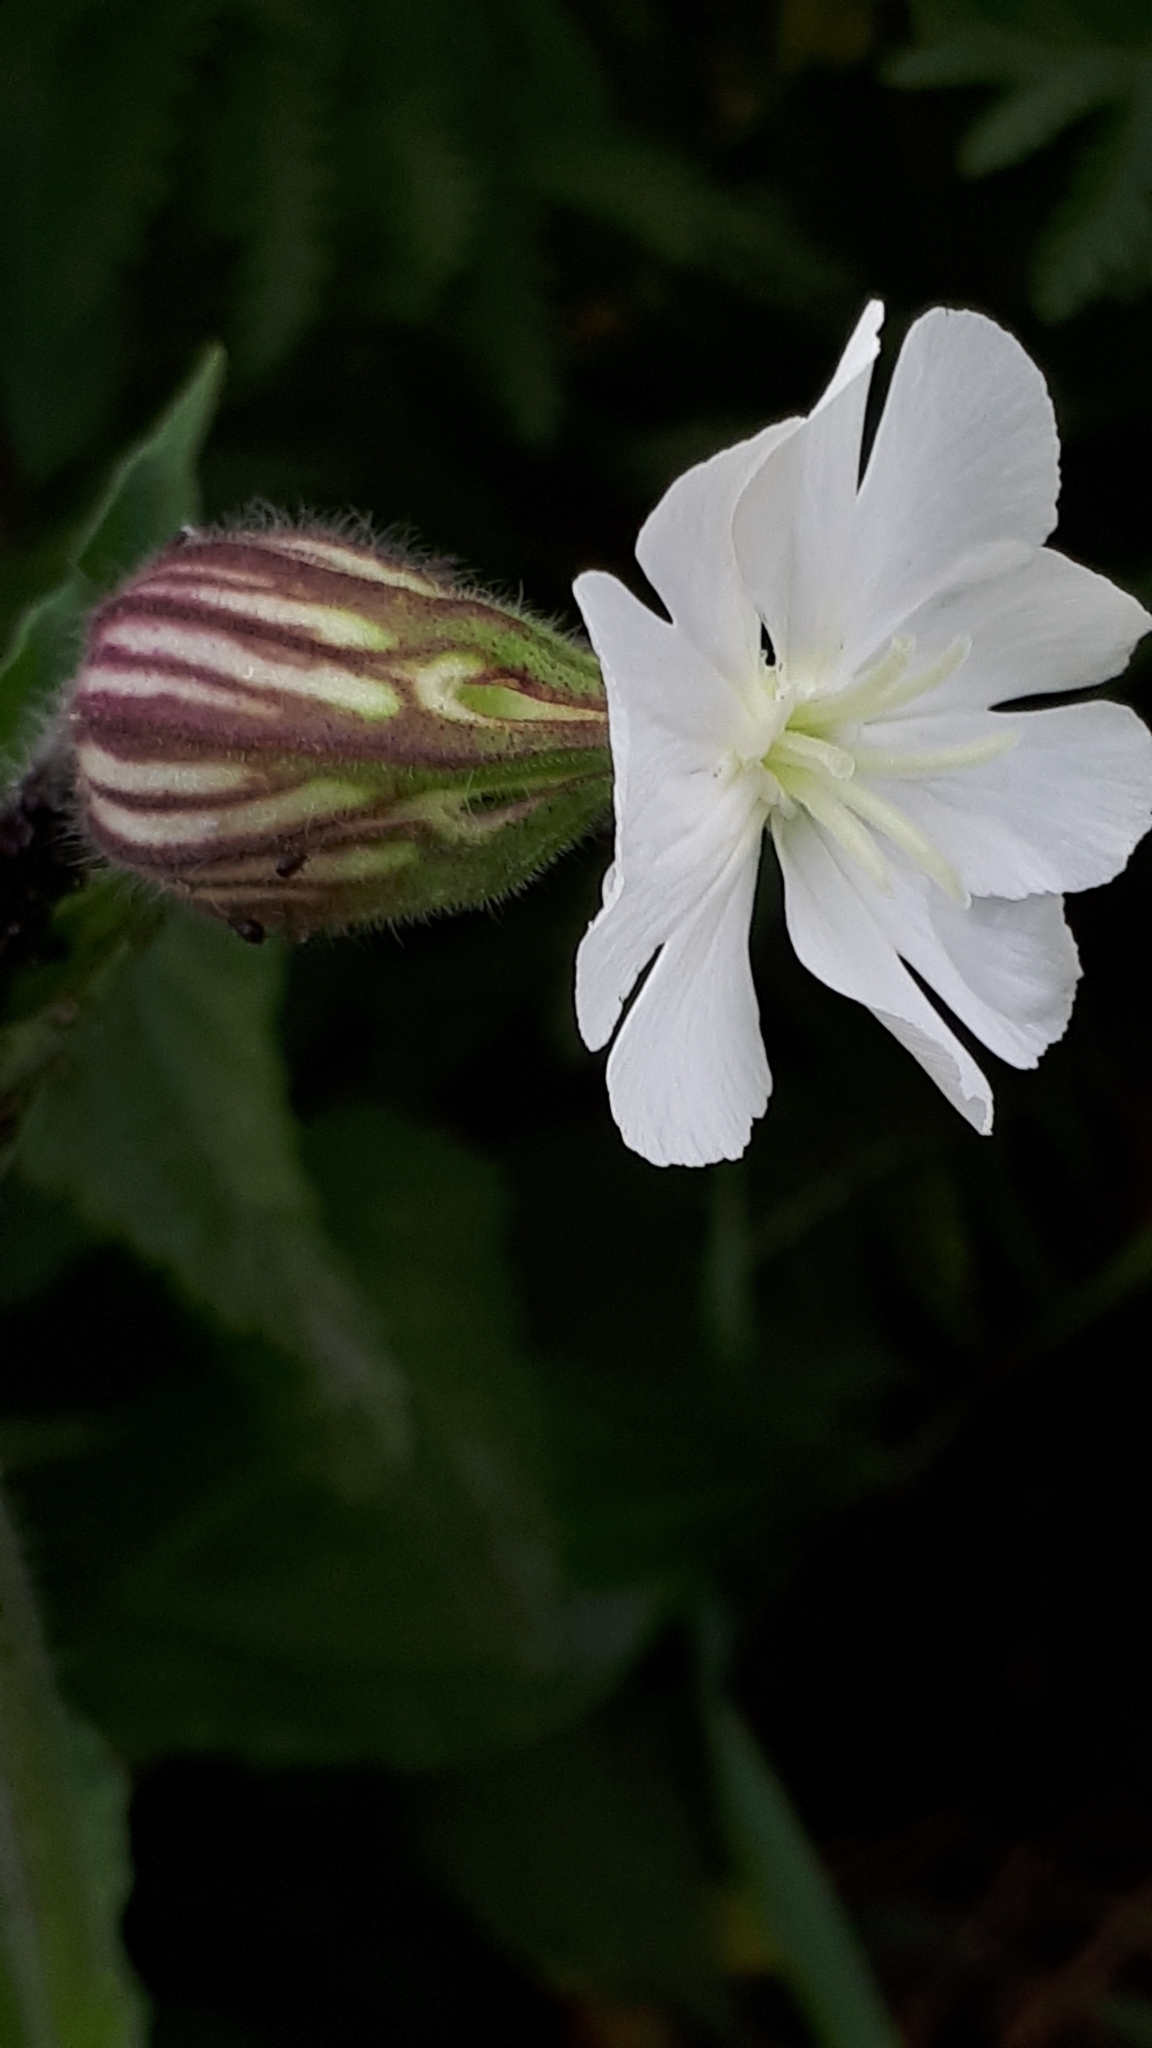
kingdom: Plantae
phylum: Tracheophyta
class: Magnoliopsida
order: Caryophyllales
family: Caryophyllaceae
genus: Silene
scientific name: Silene latifolia
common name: White campion
